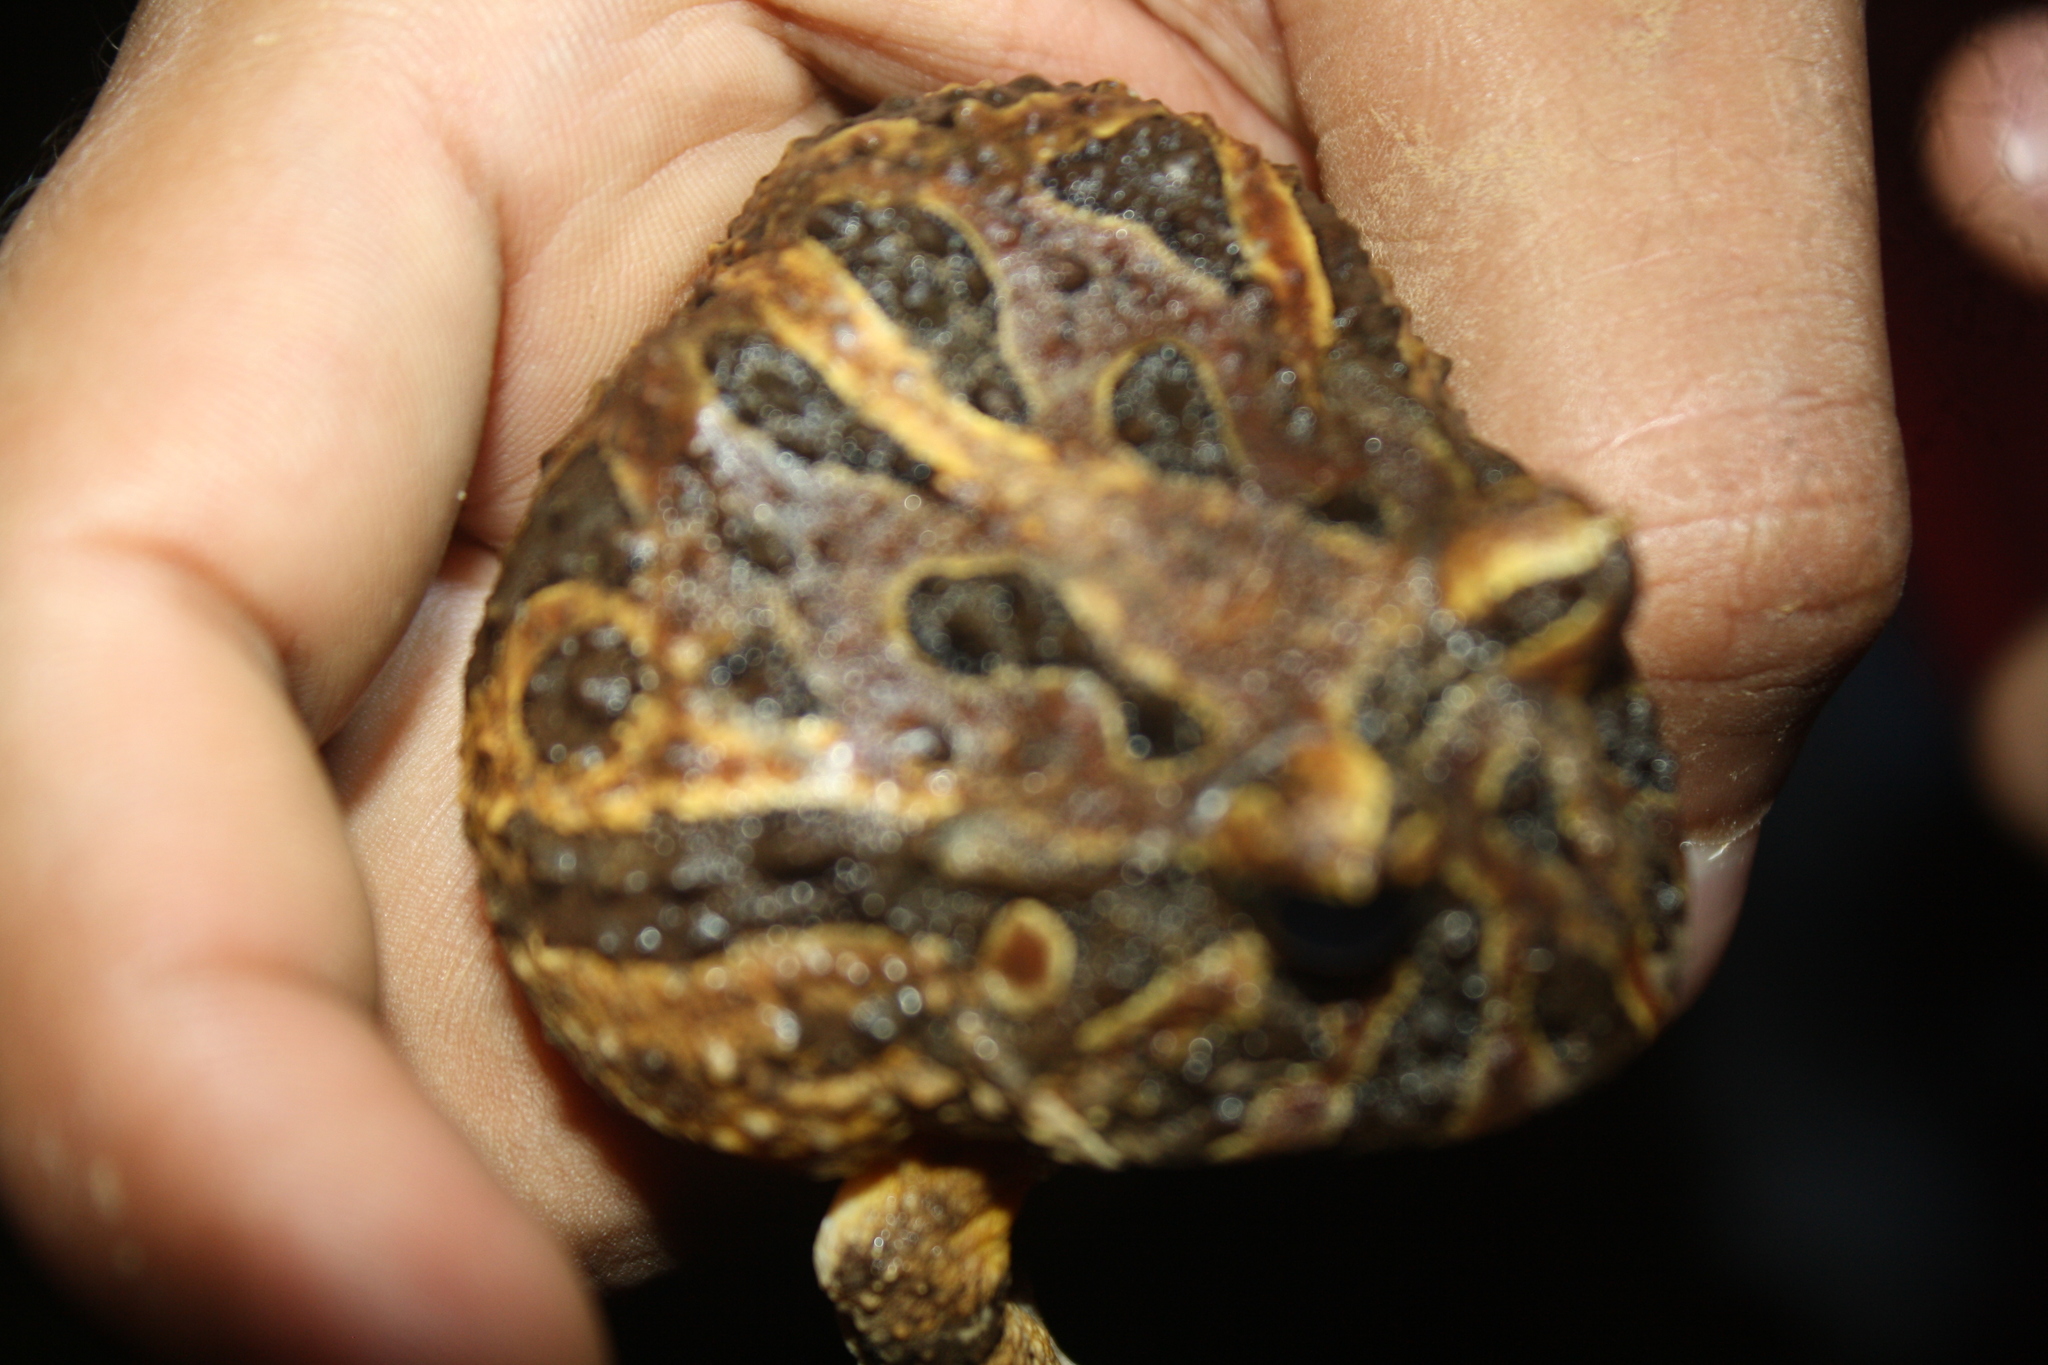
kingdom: Animalia
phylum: Chordata
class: Amphibia
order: Anura
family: Ceratophryidae
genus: Ceratophrys
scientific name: Ceratophrys calcarata
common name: Venezuelan horned frog
